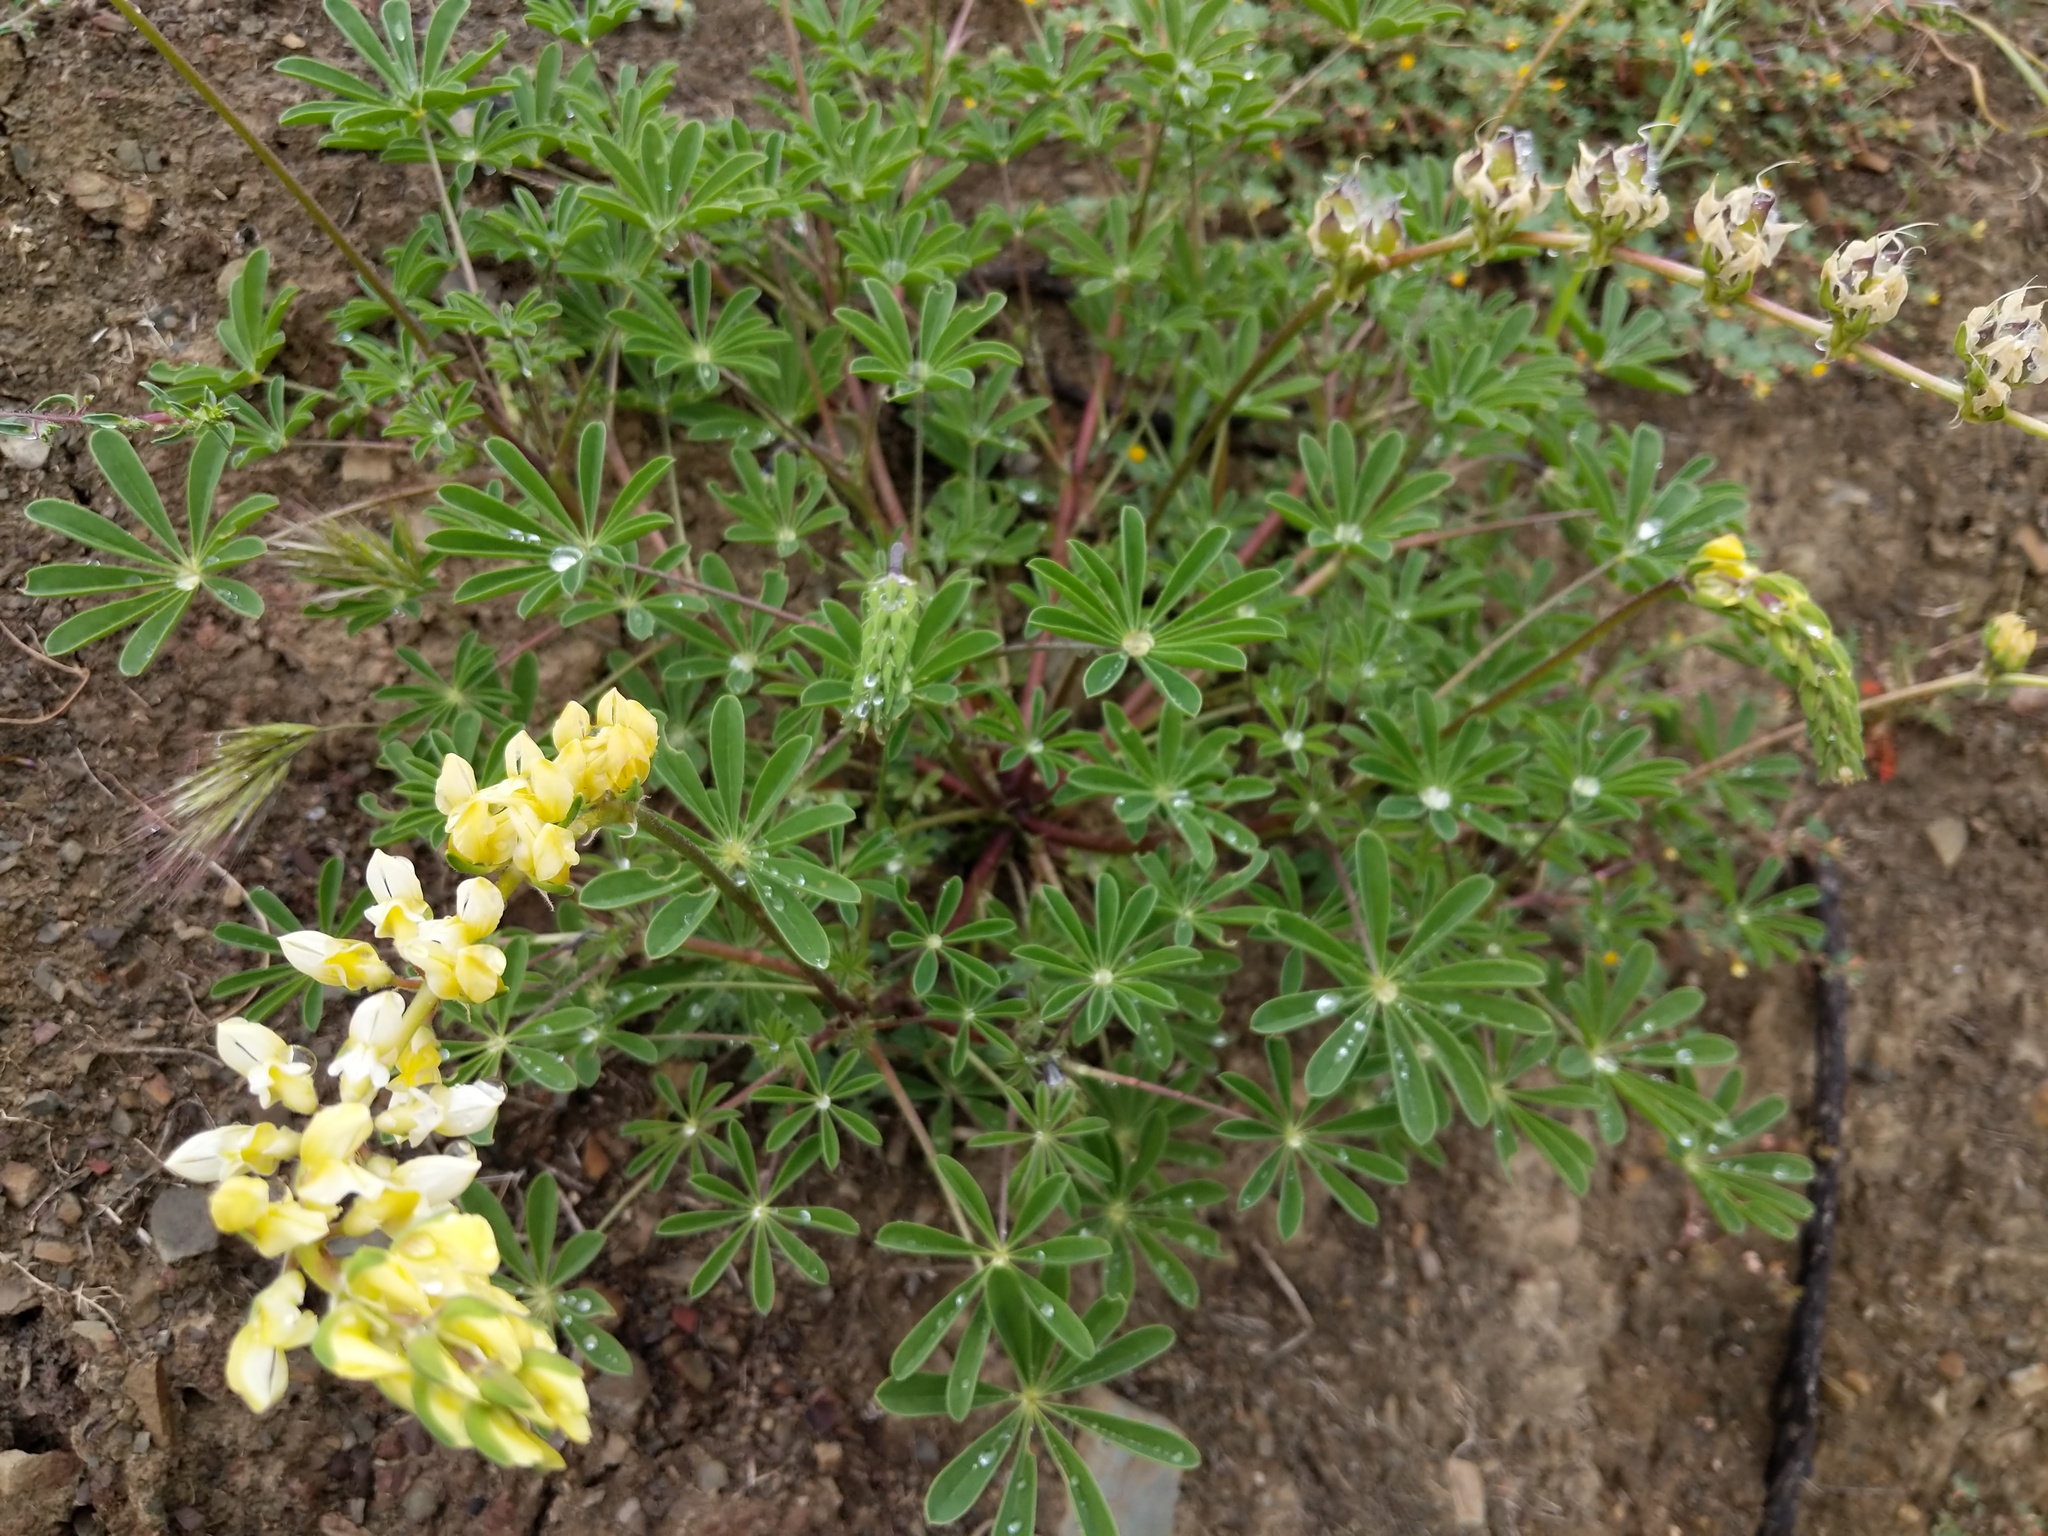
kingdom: Plantae
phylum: Tracheophyta
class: Magnoliopsida
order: Fabales
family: Fabaceae
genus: Lupinus
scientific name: Lupinus microcarpus
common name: Chick lupine
